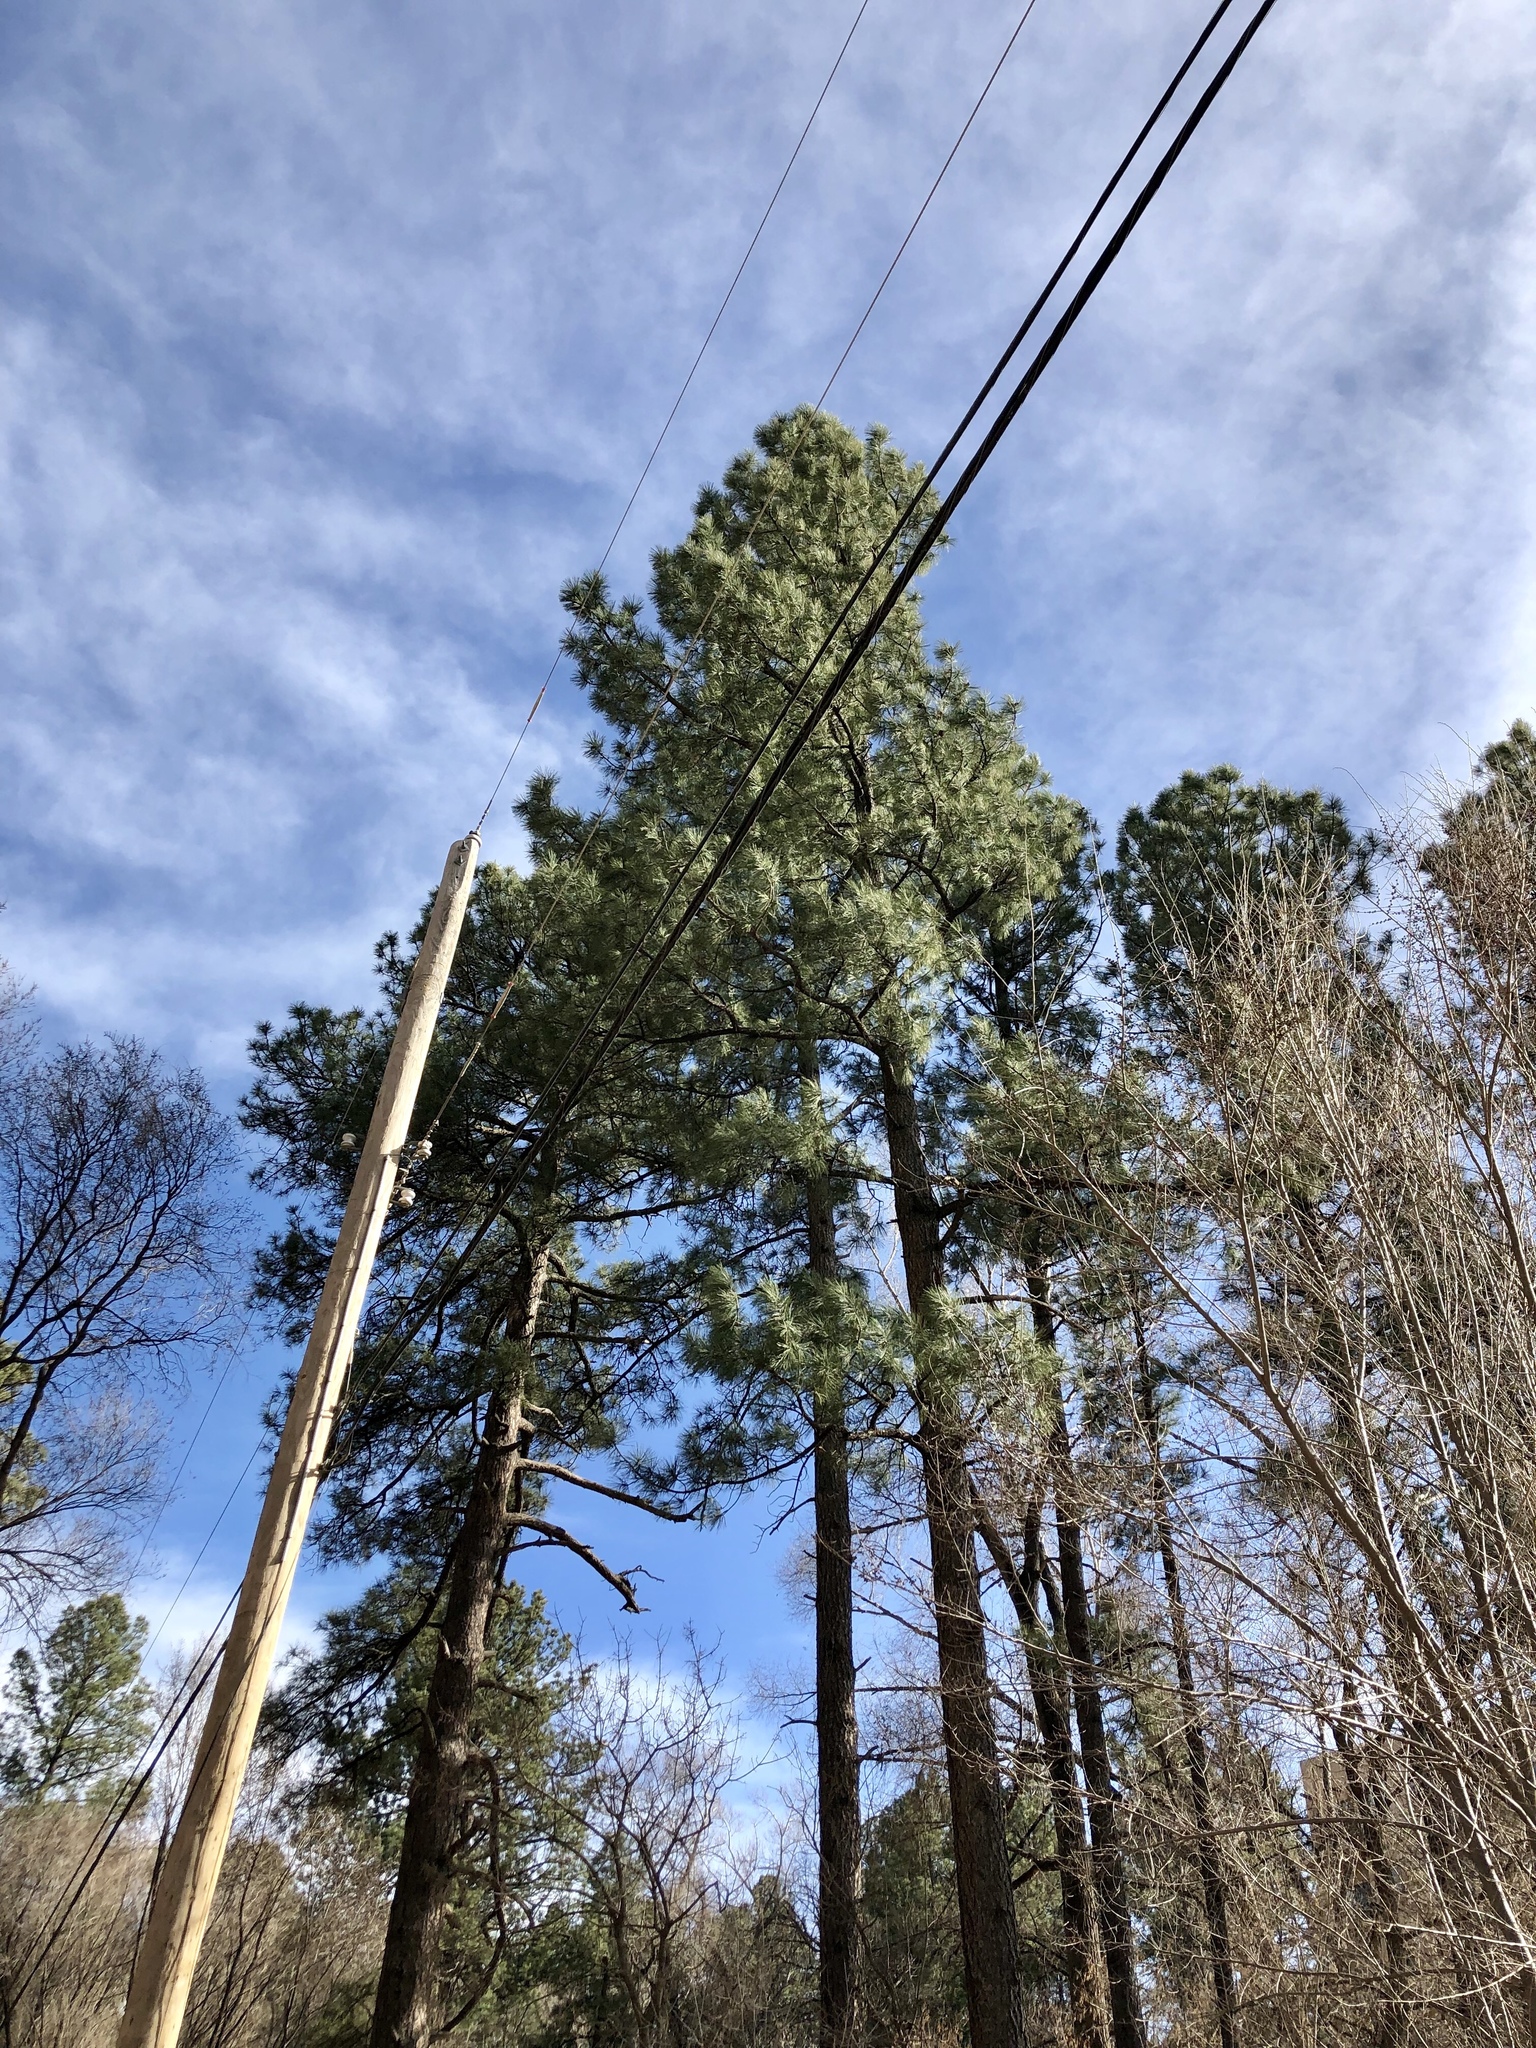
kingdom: Plantae
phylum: Tracheophyta
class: Pinopsida
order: Pinales
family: Pinaceae
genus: Pinus
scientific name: Pinus ponderosa
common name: Western yellow-pine
